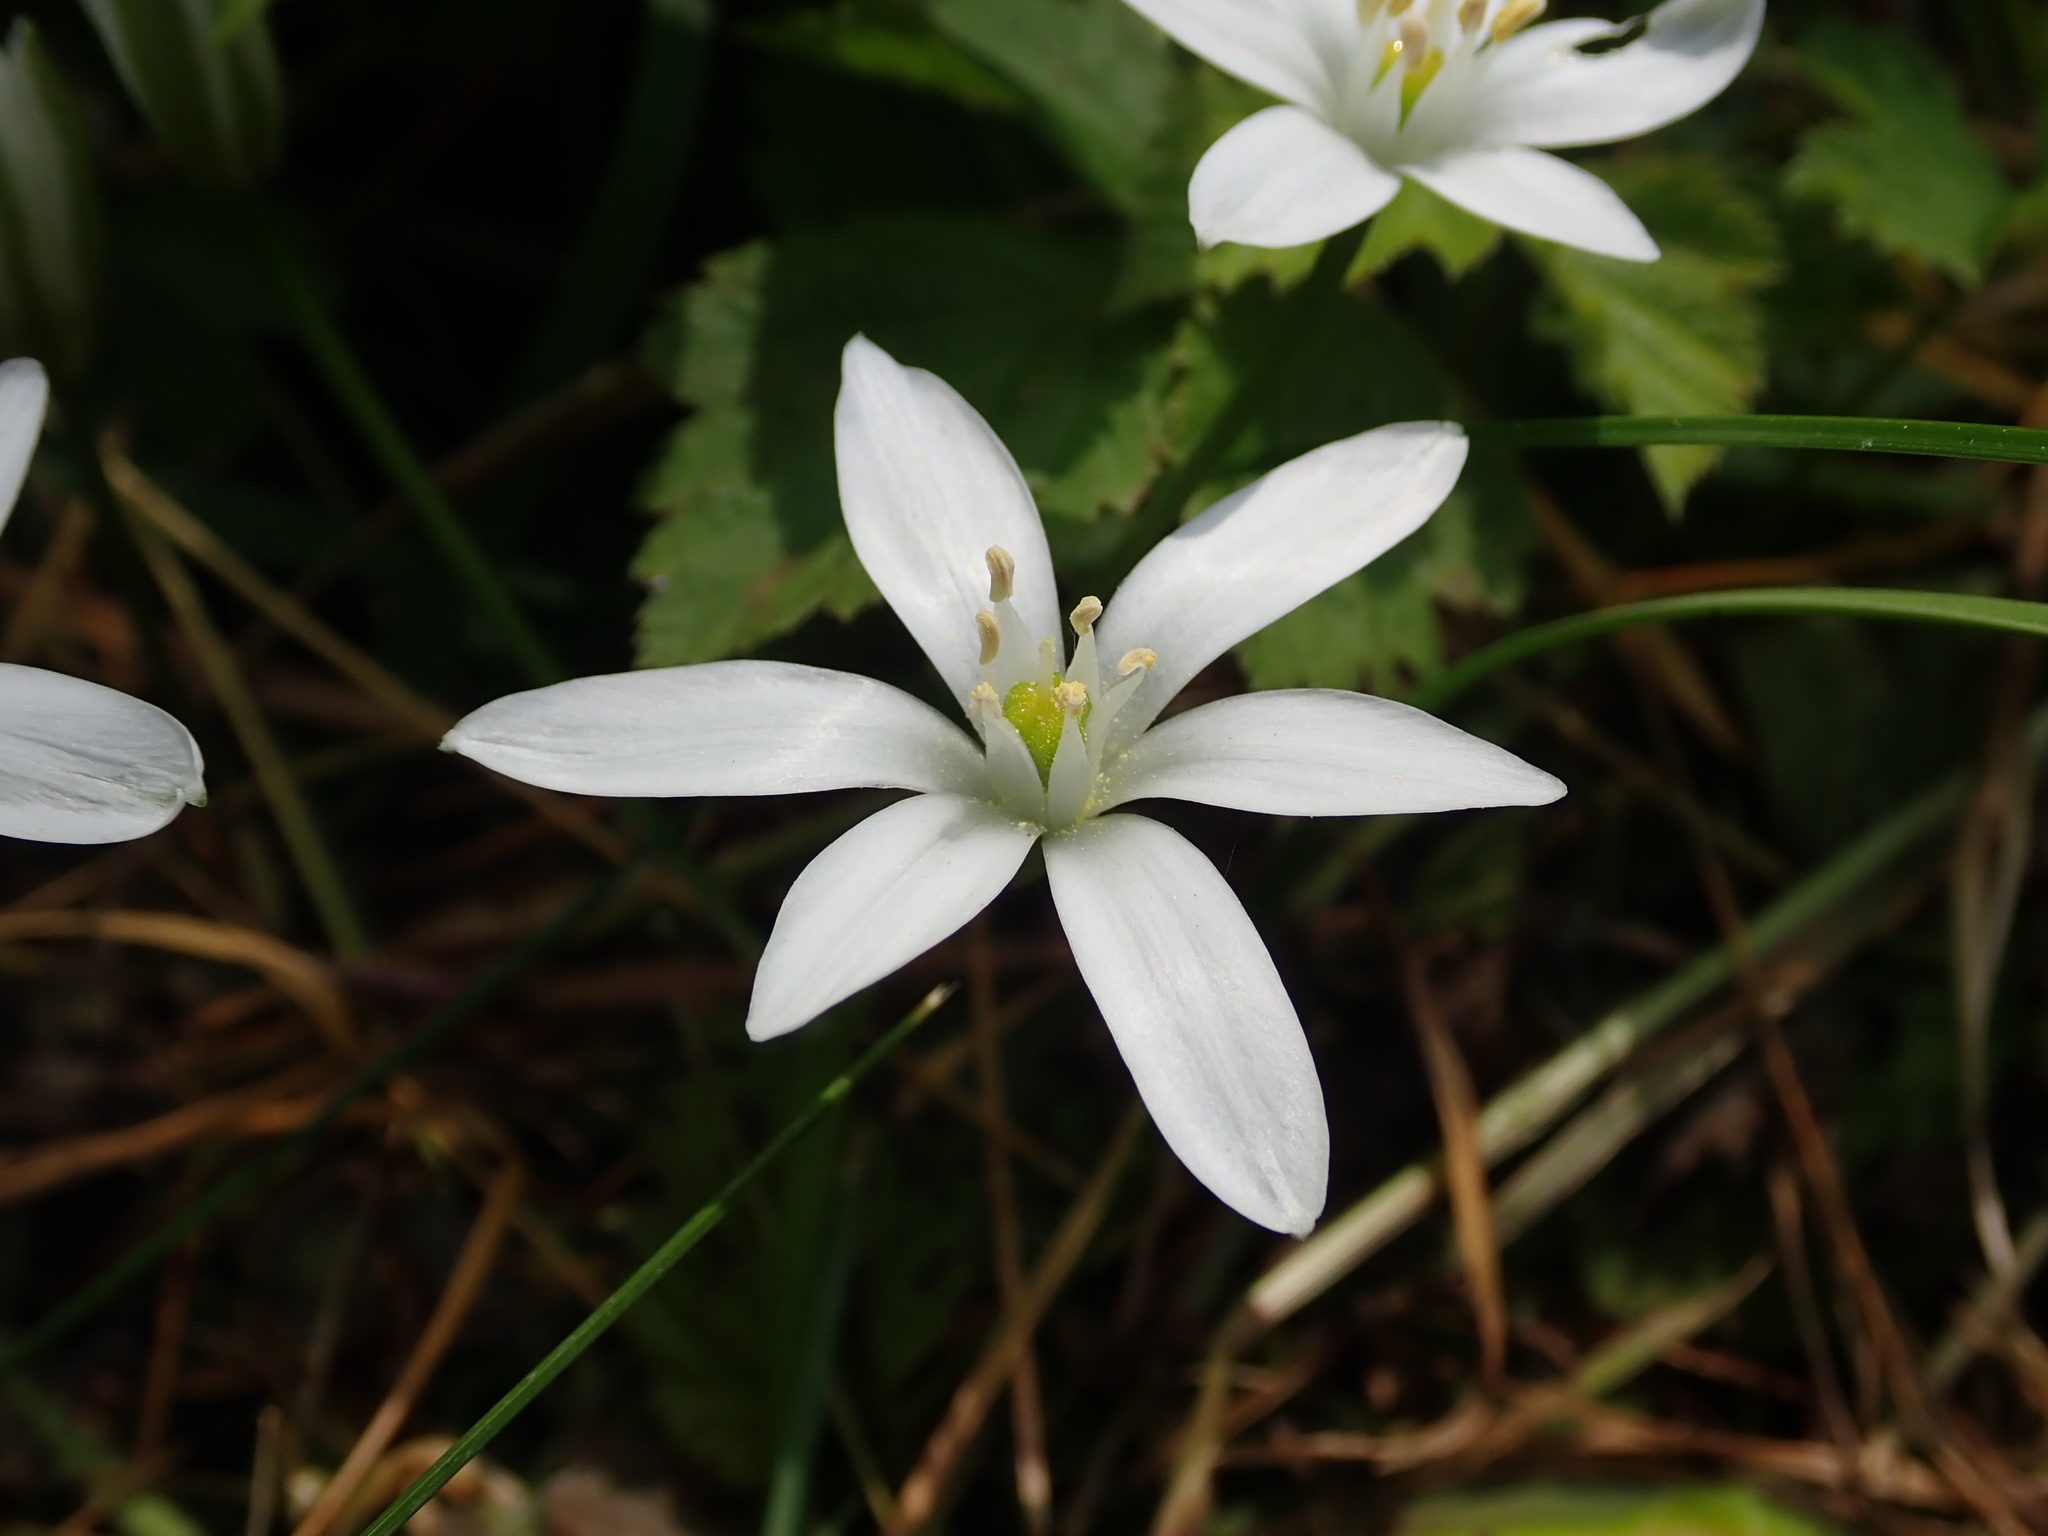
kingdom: Plantae
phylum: Tracheophyta
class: Liliopsida
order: Asparagales
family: Asparagaceae
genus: Ornithogalum
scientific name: Ornithogalum umbellatum
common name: Garden star-of-bethlehem
